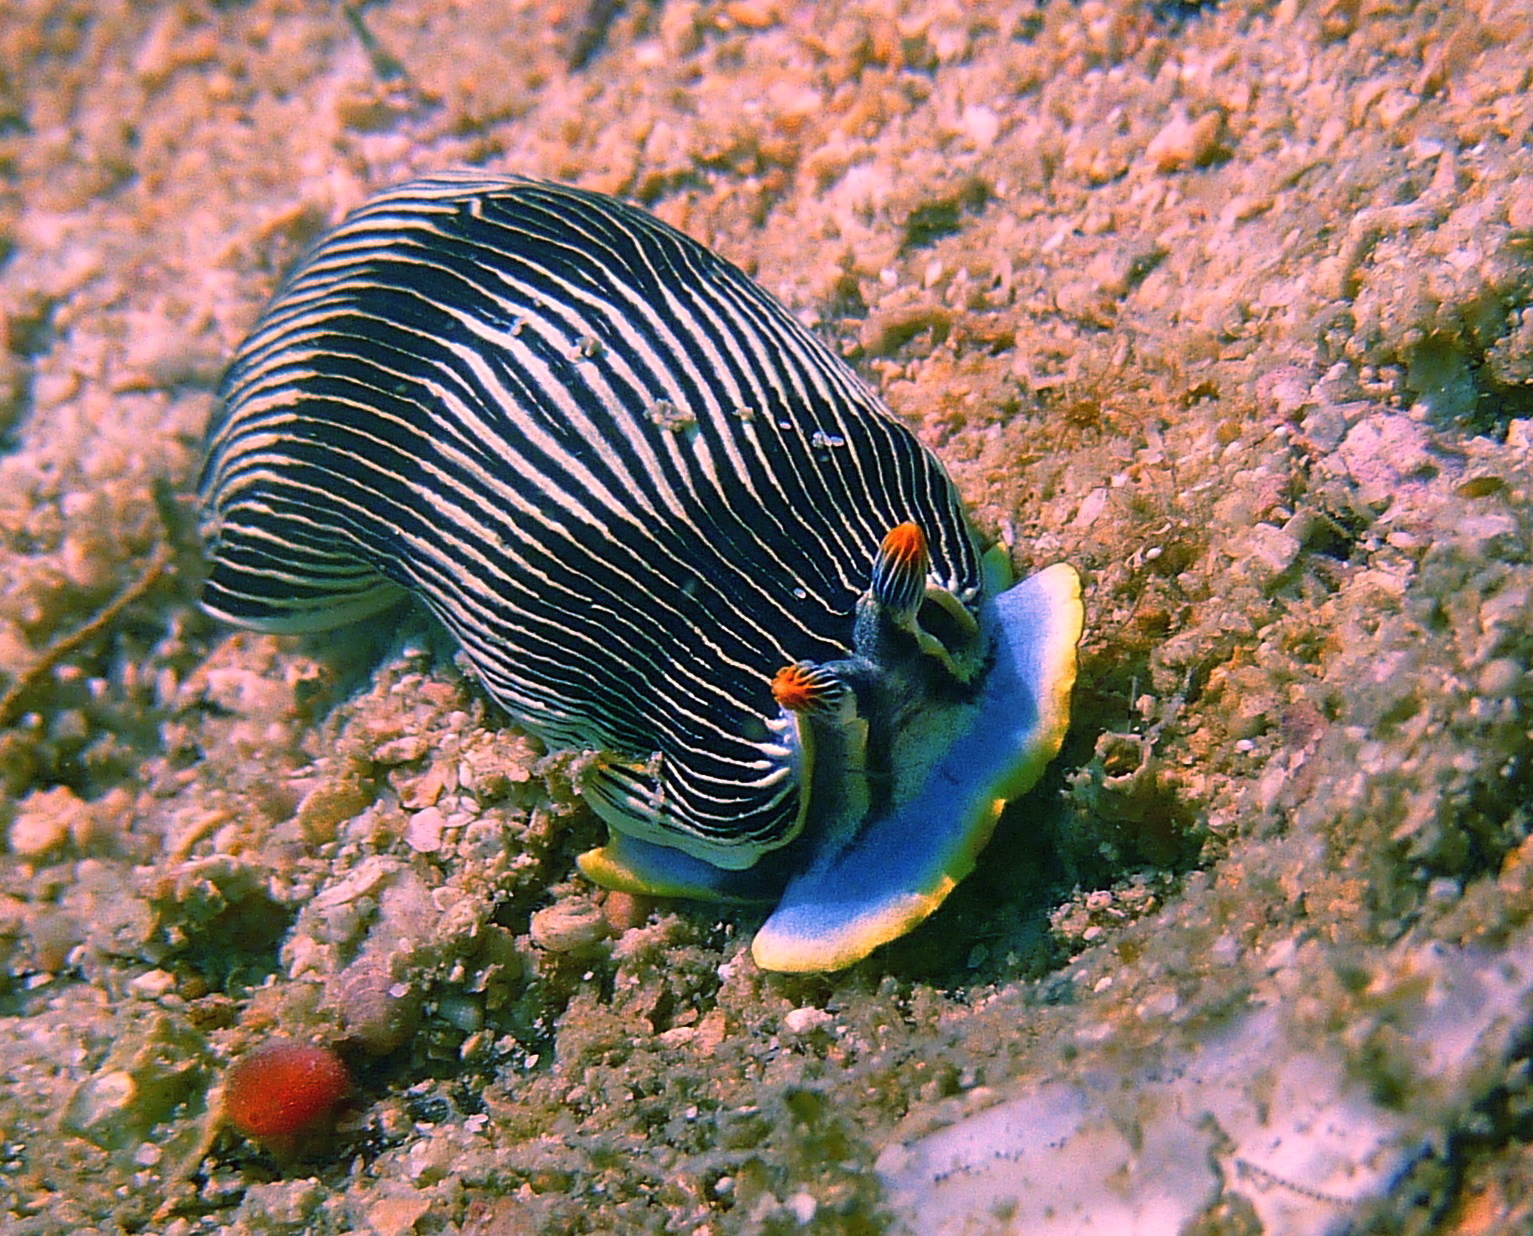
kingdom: Animalia
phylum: Mollusca
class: Gastropoda
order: Nudibranchia
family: Arminidae
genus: Armina
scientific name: Armina scotti
